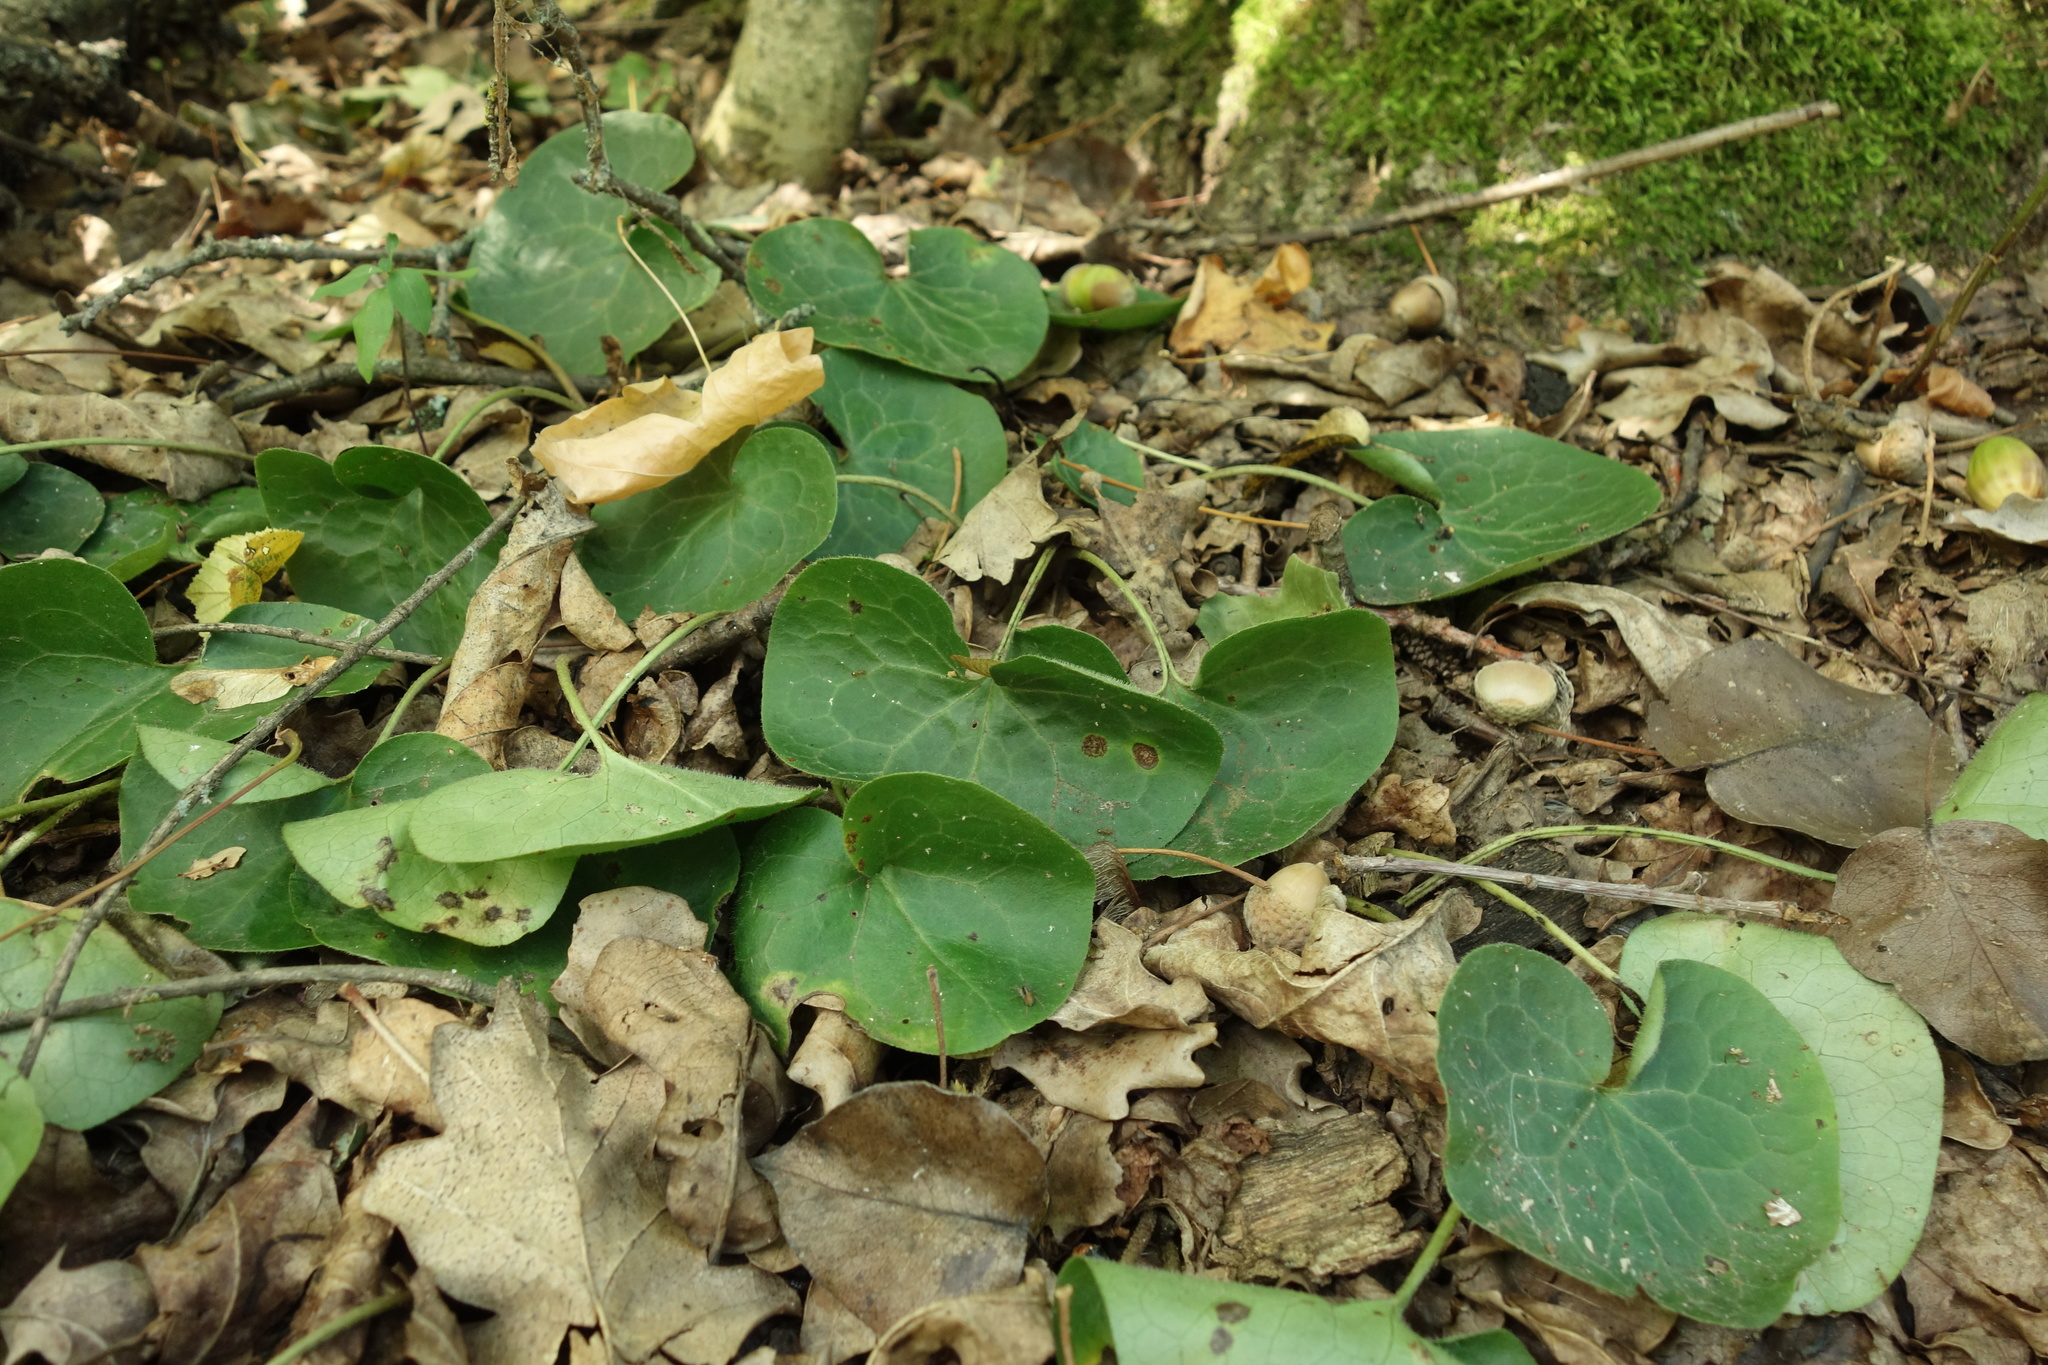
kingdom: Plantae
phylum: Tracheophyta
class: Magnoliopsida
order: Piperales
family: Aristolochiaceae
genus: Asarum
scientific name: Asarum europaeum
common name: Asarabacca
